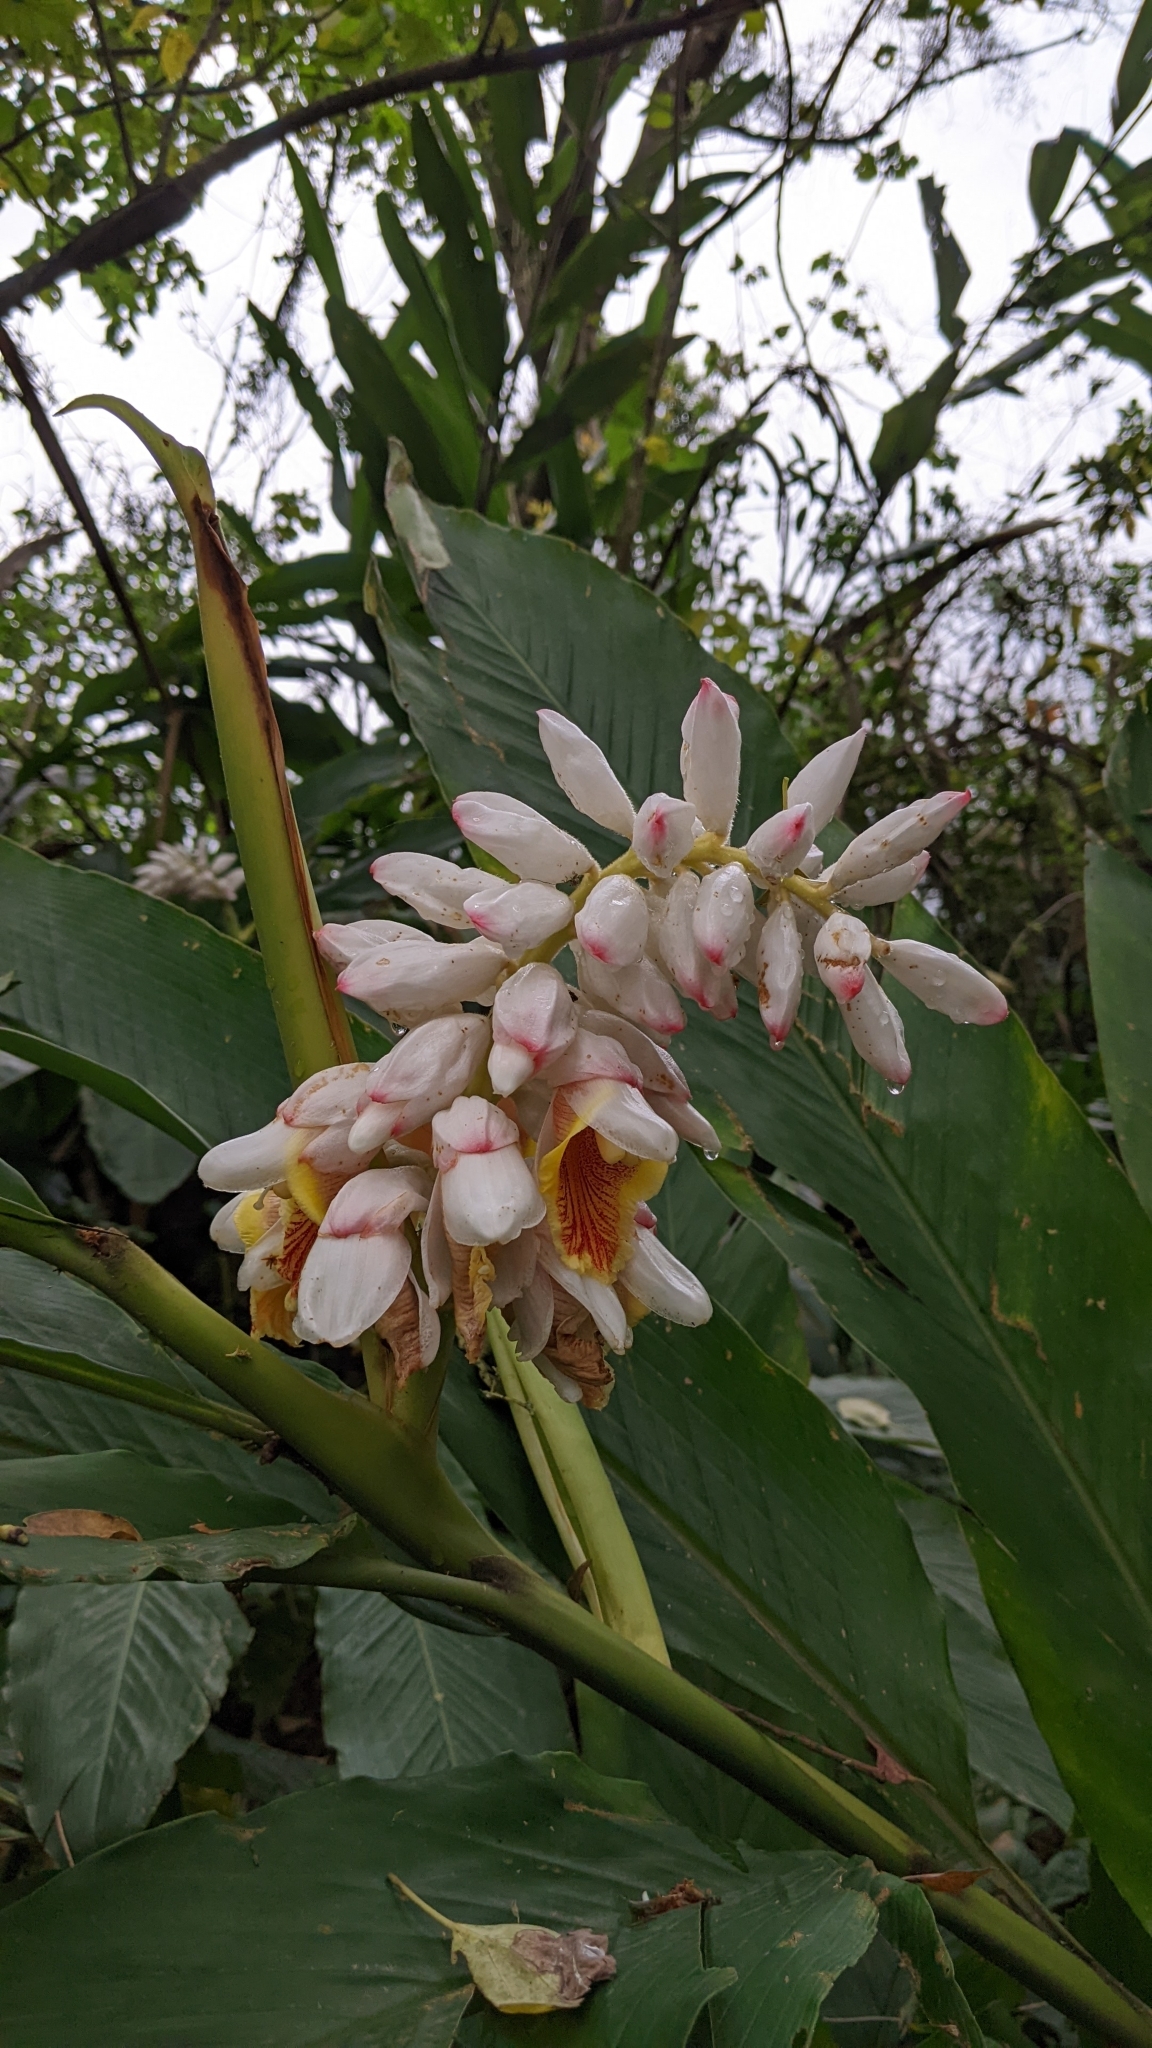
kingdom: Plantae
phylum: Tracheophyta
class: Liliopsida
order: Zingiberales
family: Zingiberaceae
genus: Alpinia
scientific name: Alpinia uraiensis
